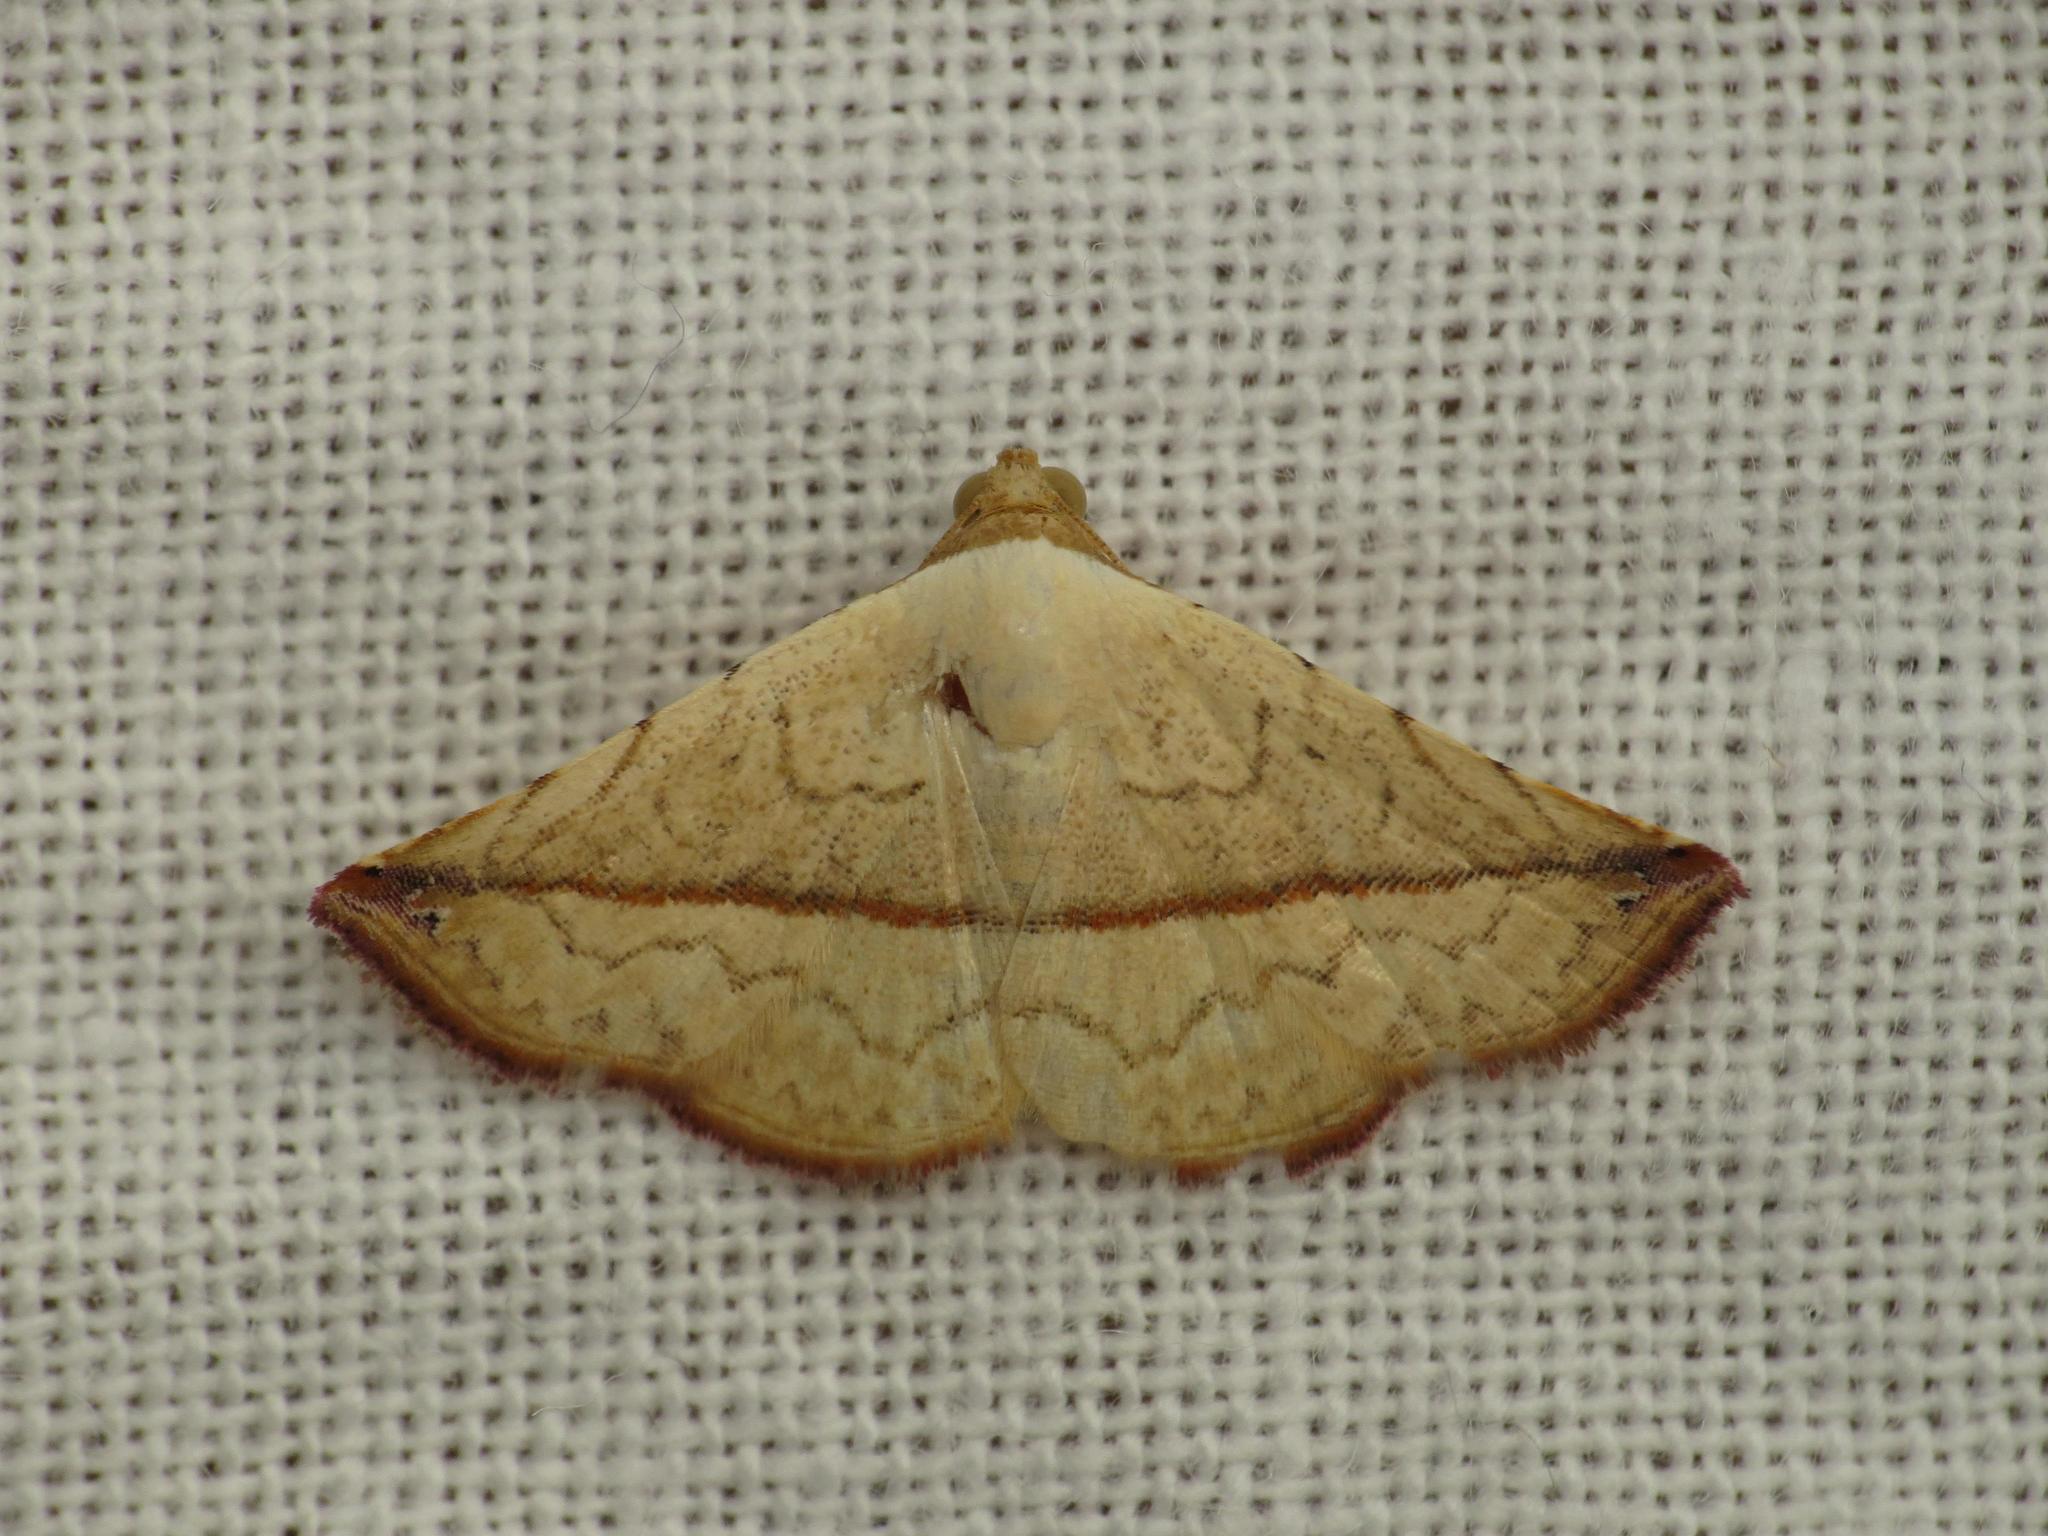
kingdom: Animalia
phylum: Arthropoda
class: Insecta
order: Lepidoptera
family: Noctuidae
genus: Eublemma
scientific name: Eublemma perversicolor
